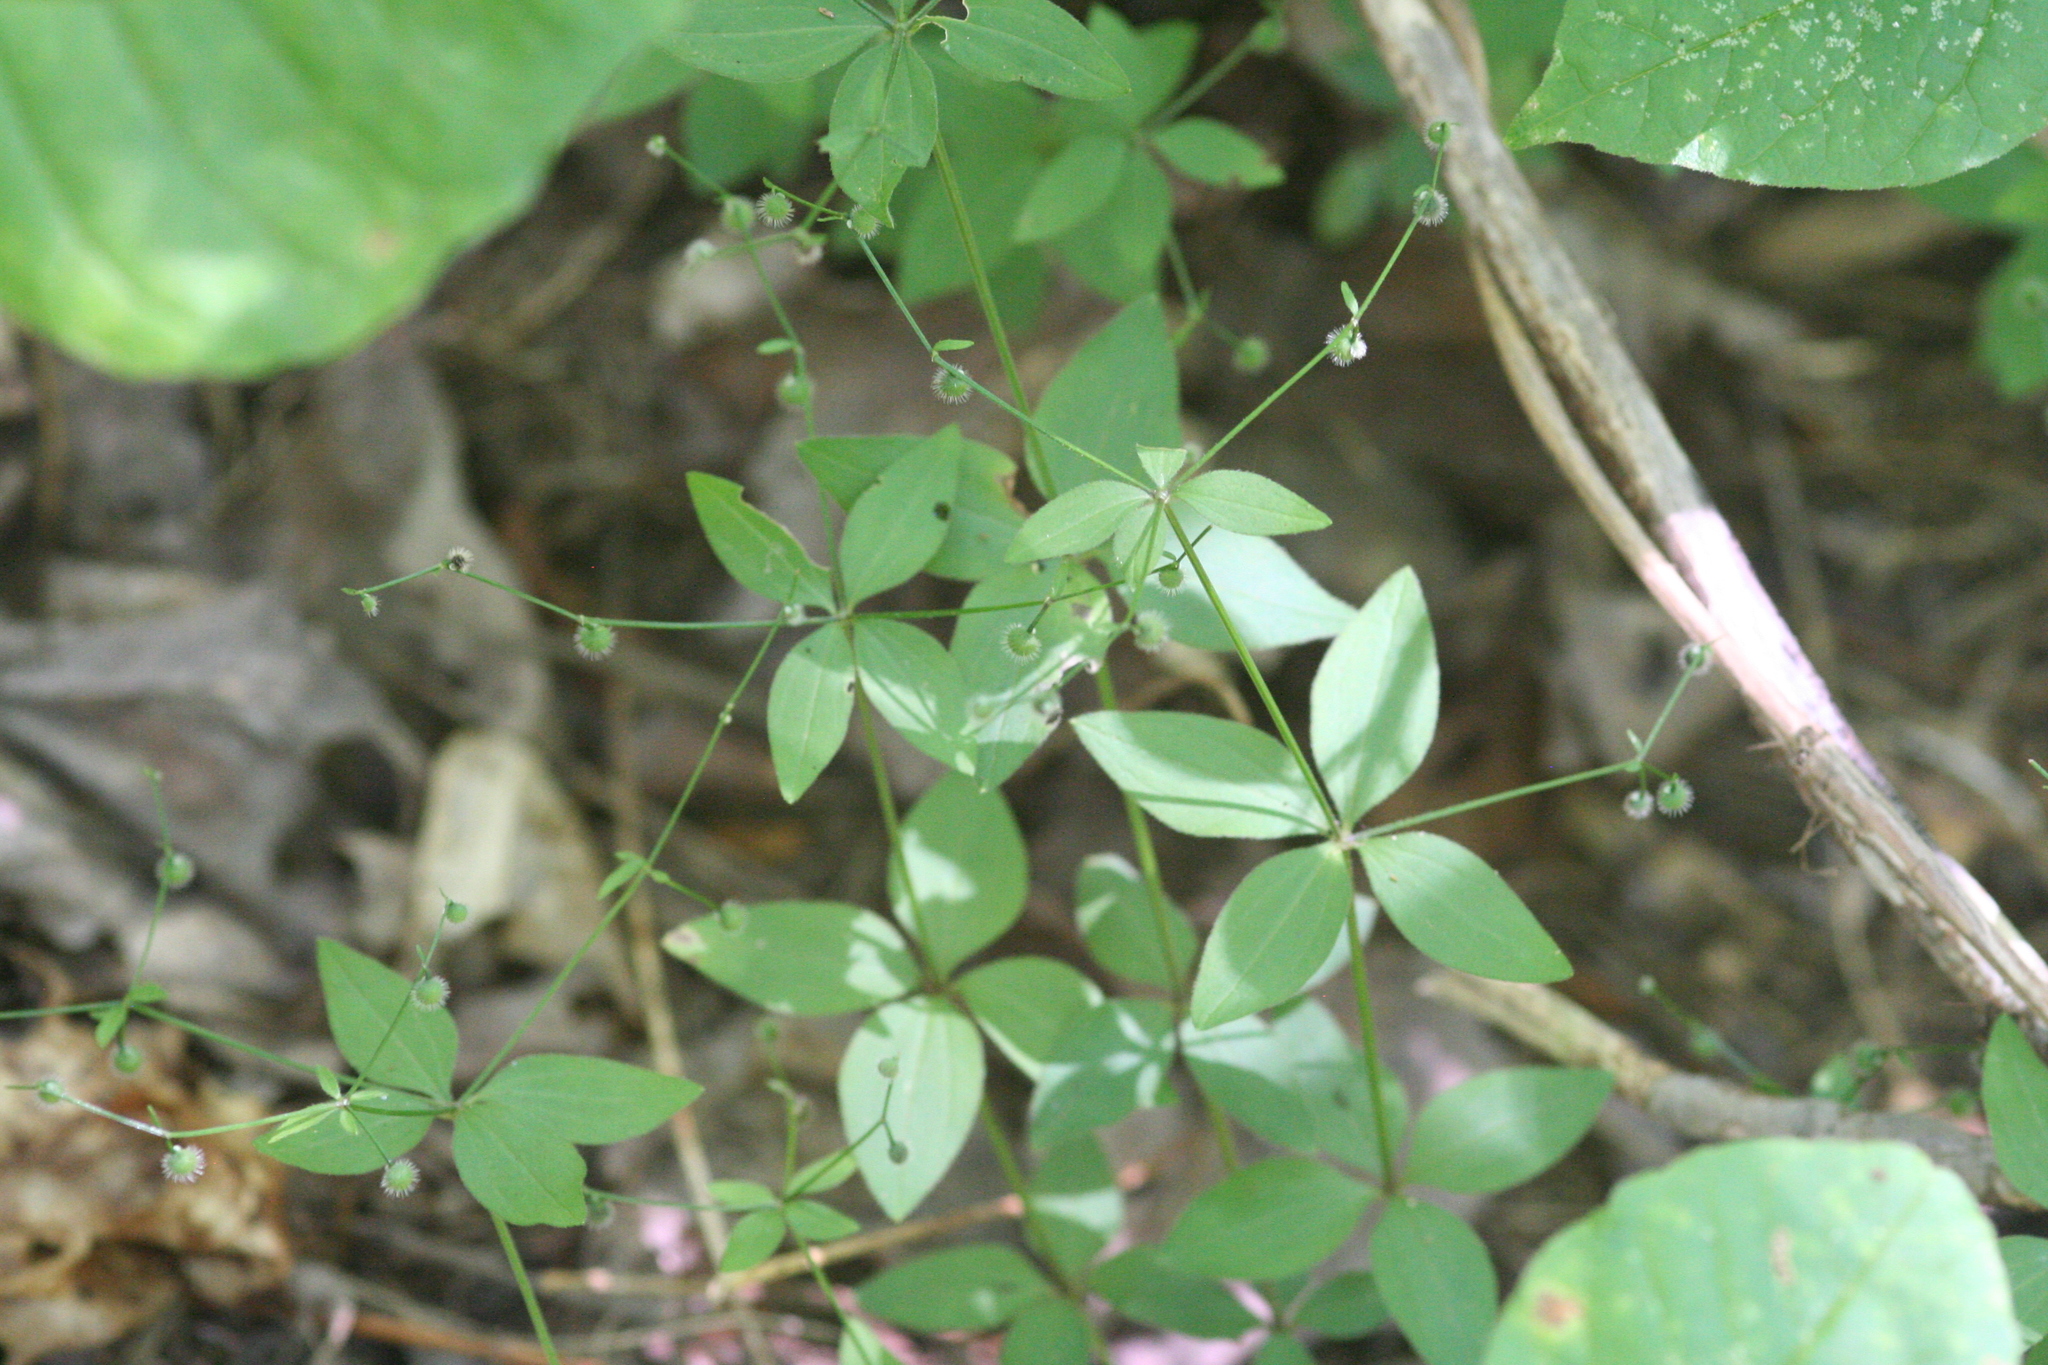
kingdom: Plantae
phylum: Tracheophyta
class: Magnoliopsida
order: Gentianales
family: Rubiaceae
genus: Galium
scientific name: Galium circaezans
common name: Forest bedstraw
